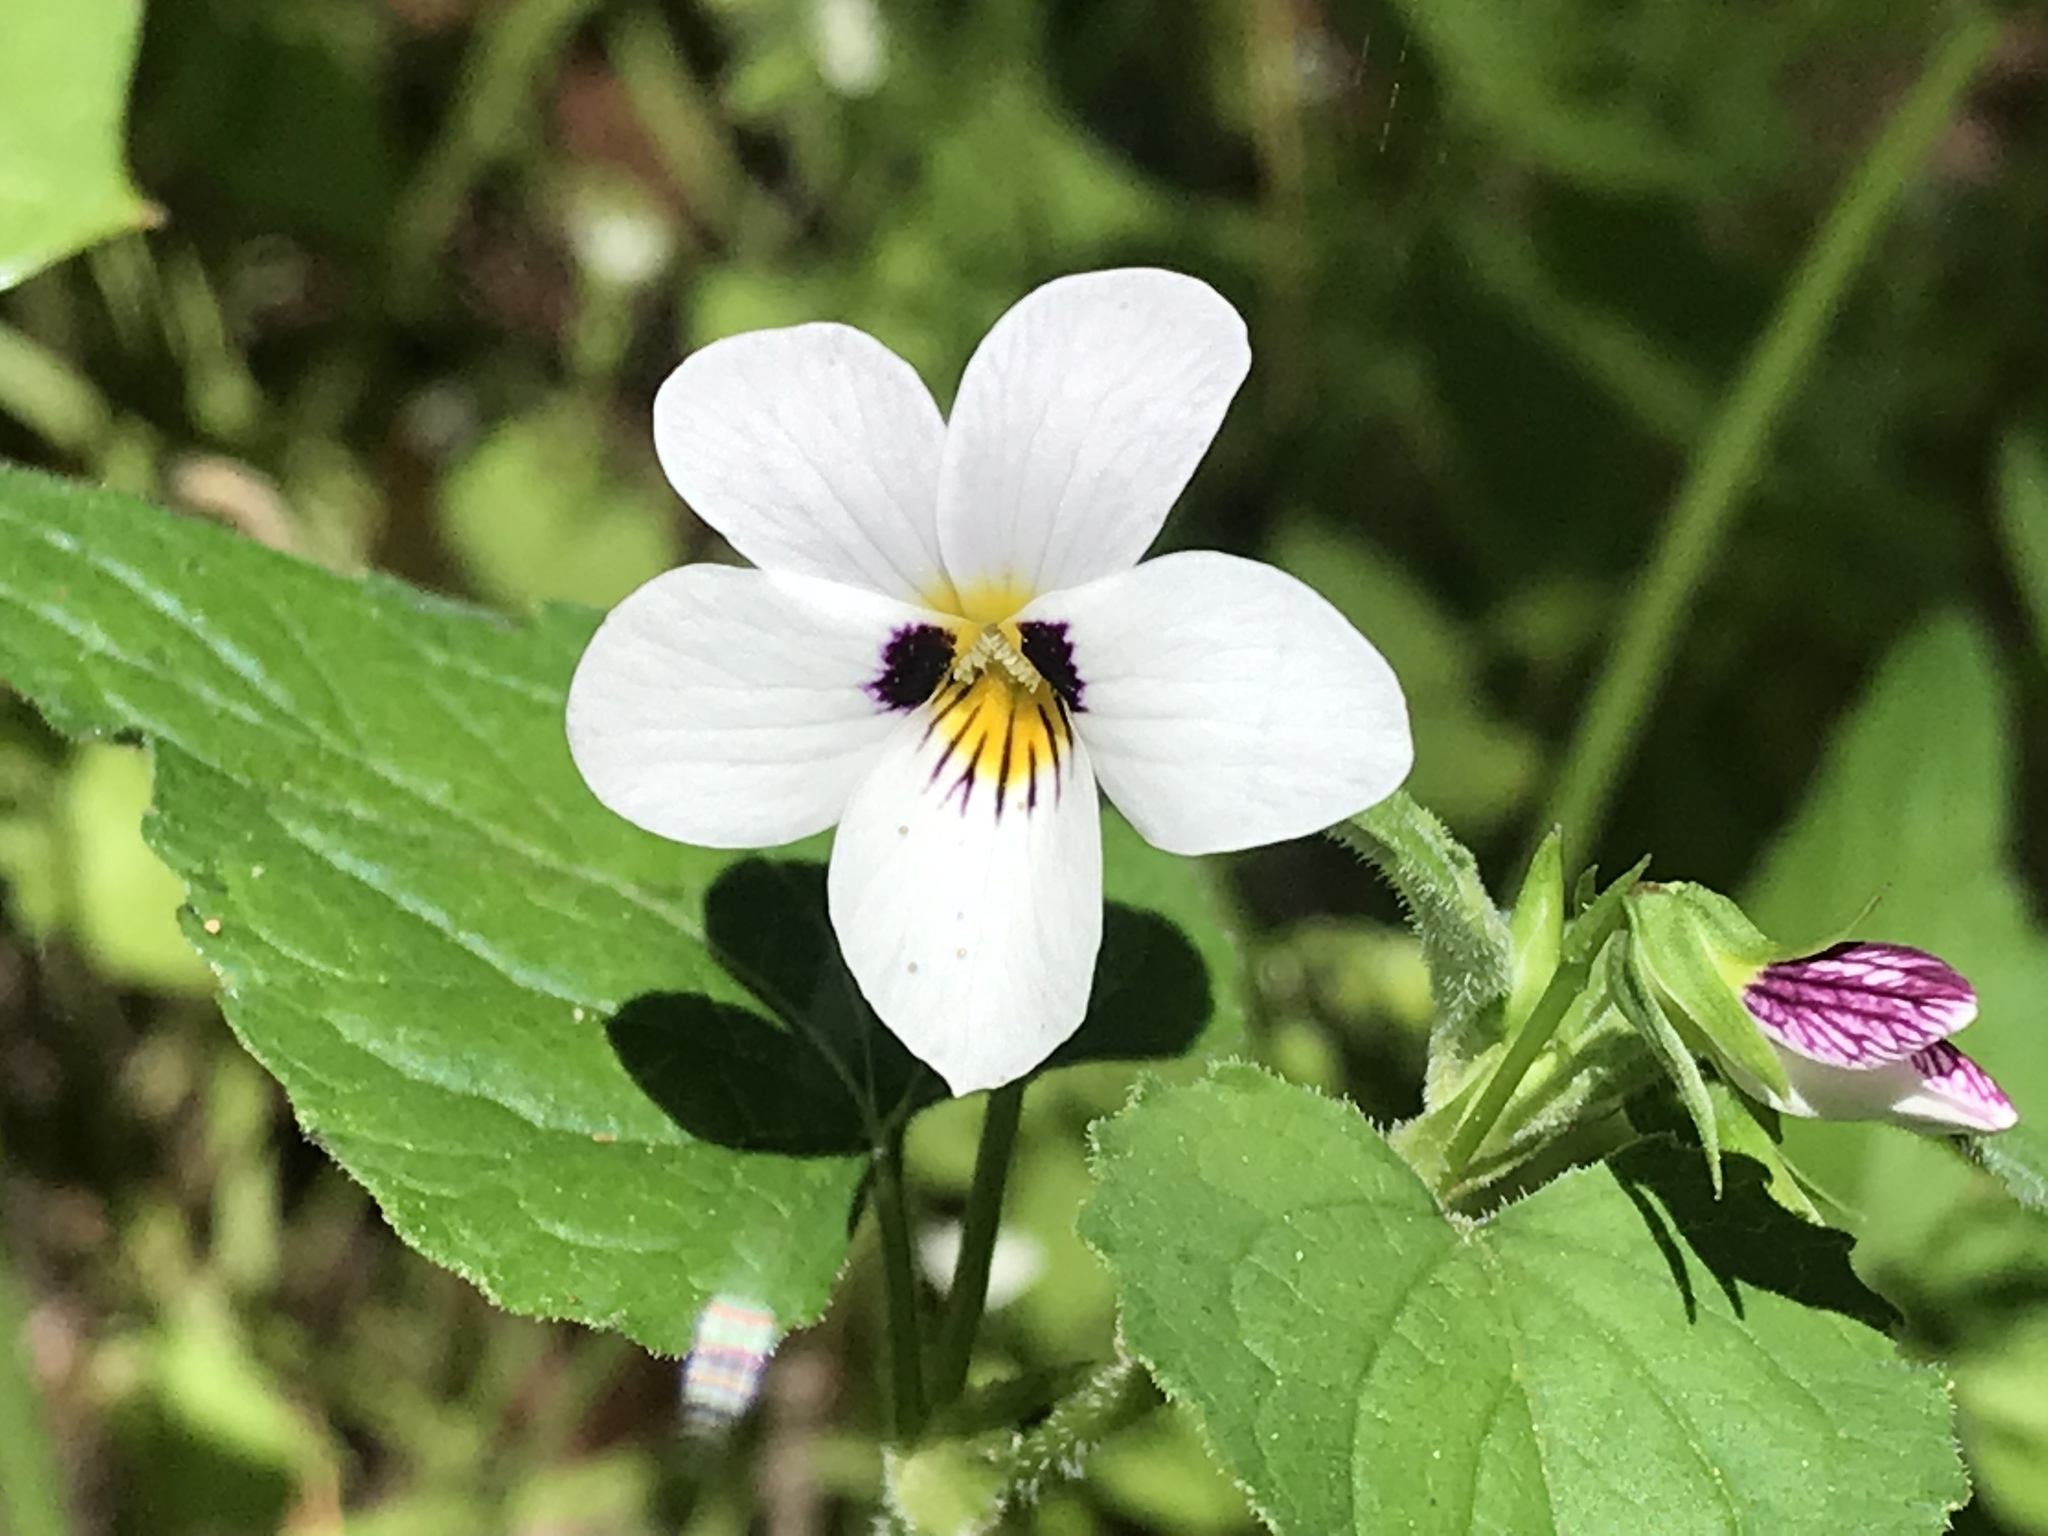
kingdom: Plantae
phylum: Tracheophyta
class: Magnoliopsida
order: Malpighiales
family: Violaceae
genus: Viola
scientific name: Viola ocellata
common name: Western heart's ease
